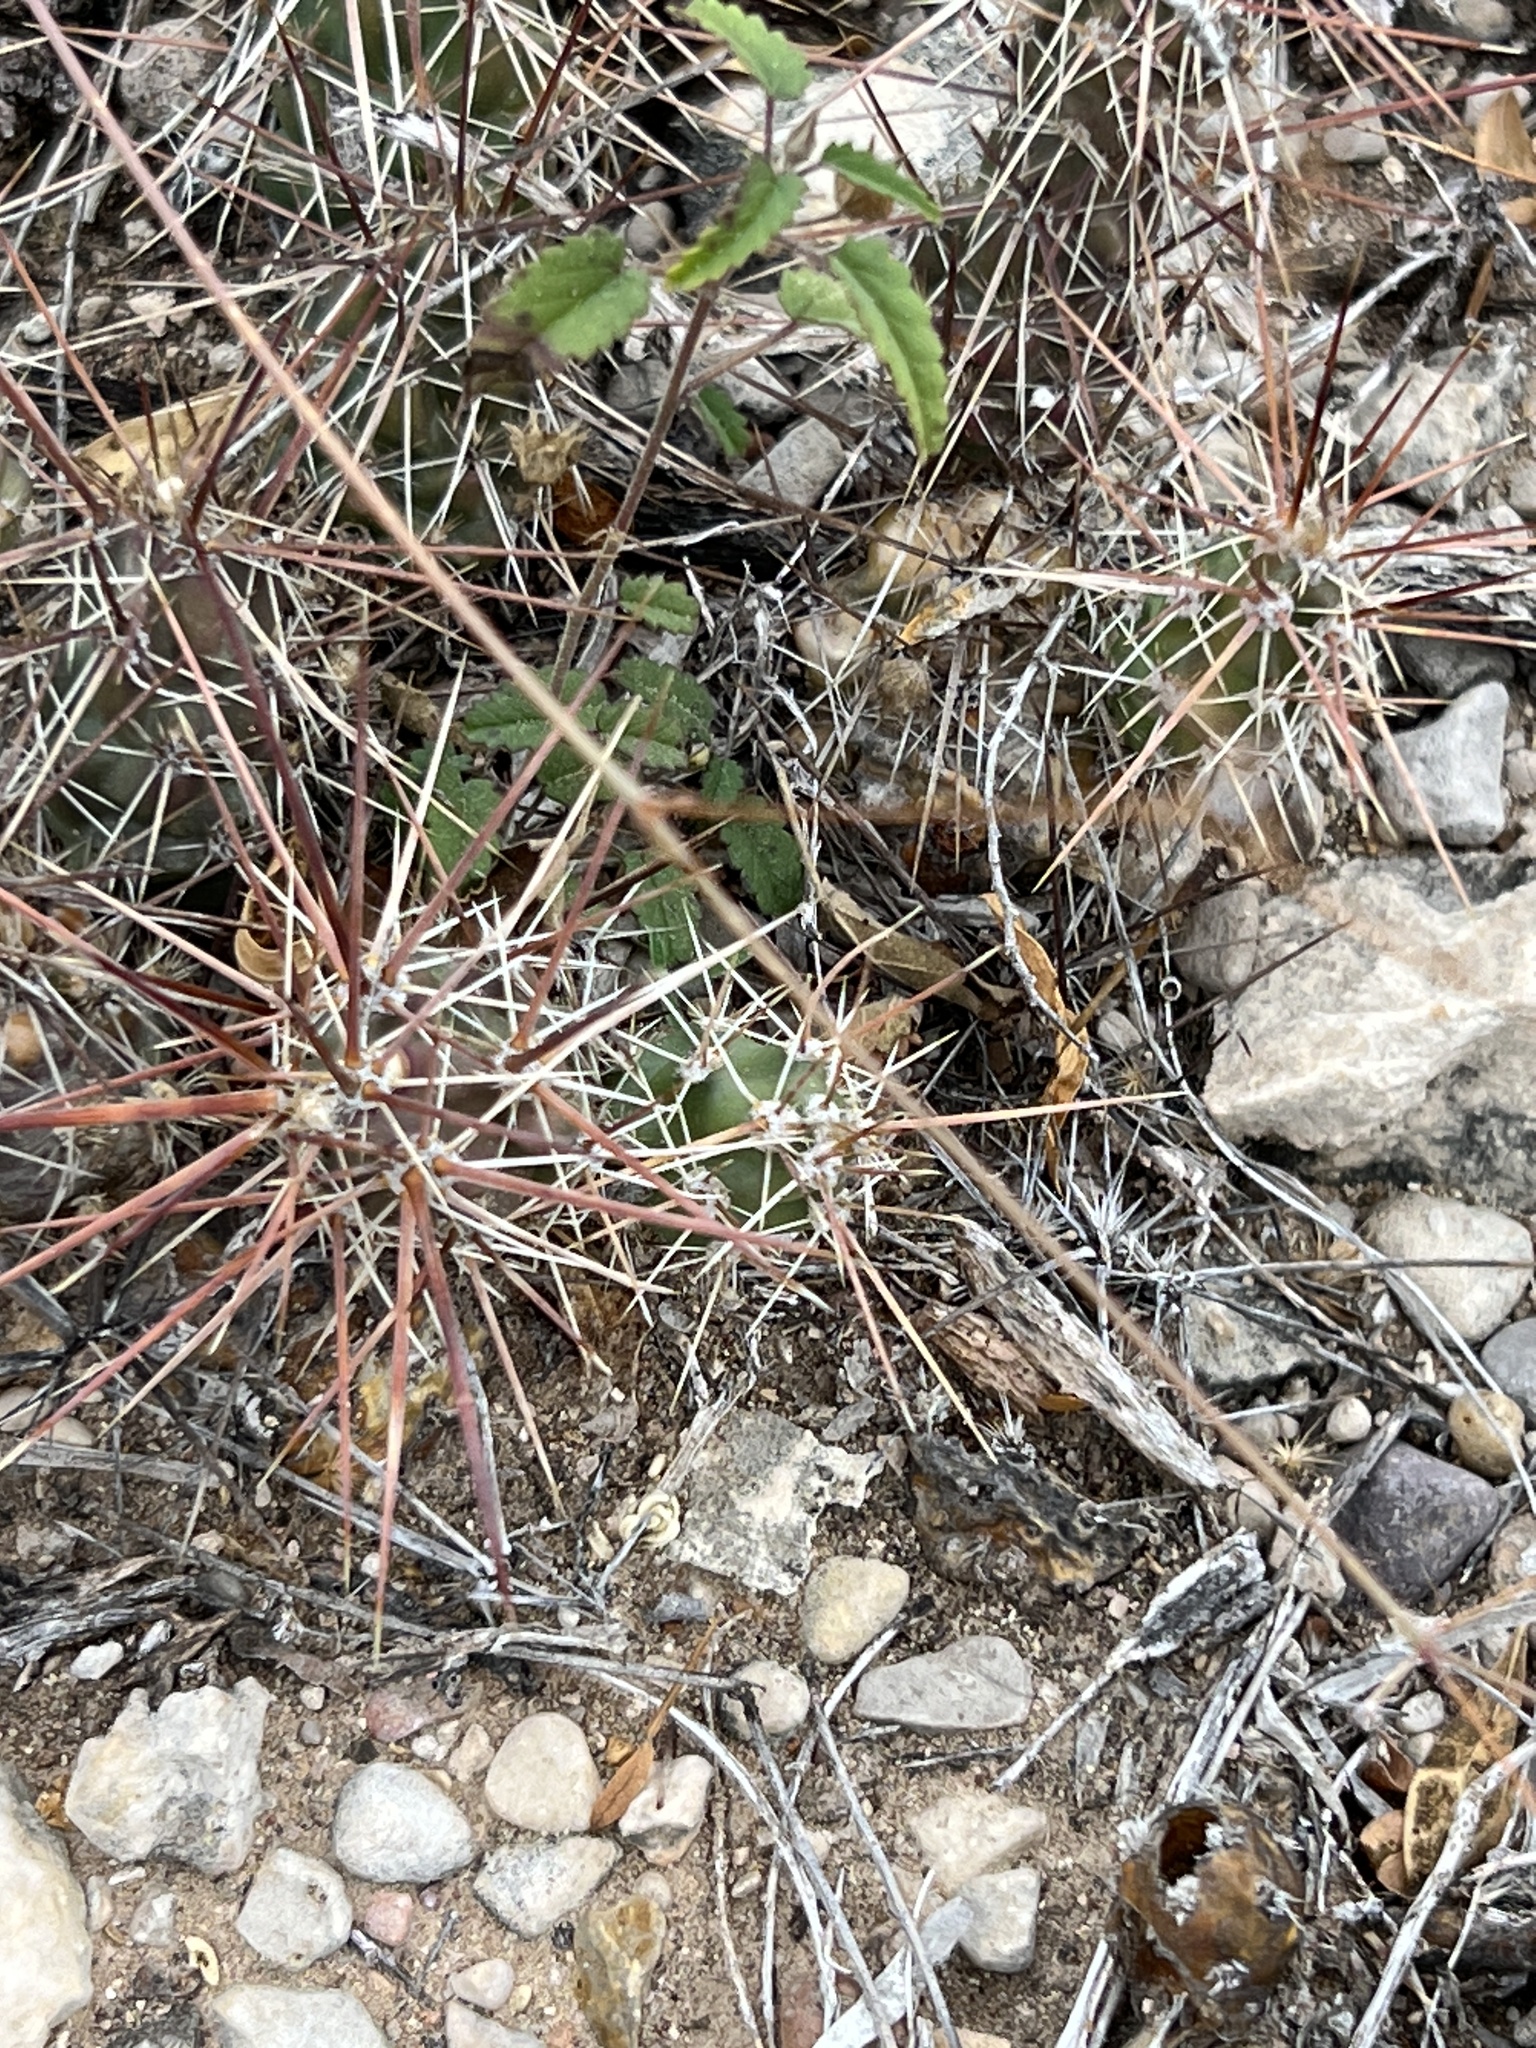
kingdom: Plantae
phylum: Tracheophyta
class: Magnoliopsida
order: Caryophyllales
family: Cactaceae
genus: Grusonia
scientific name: Grusonia schottii
